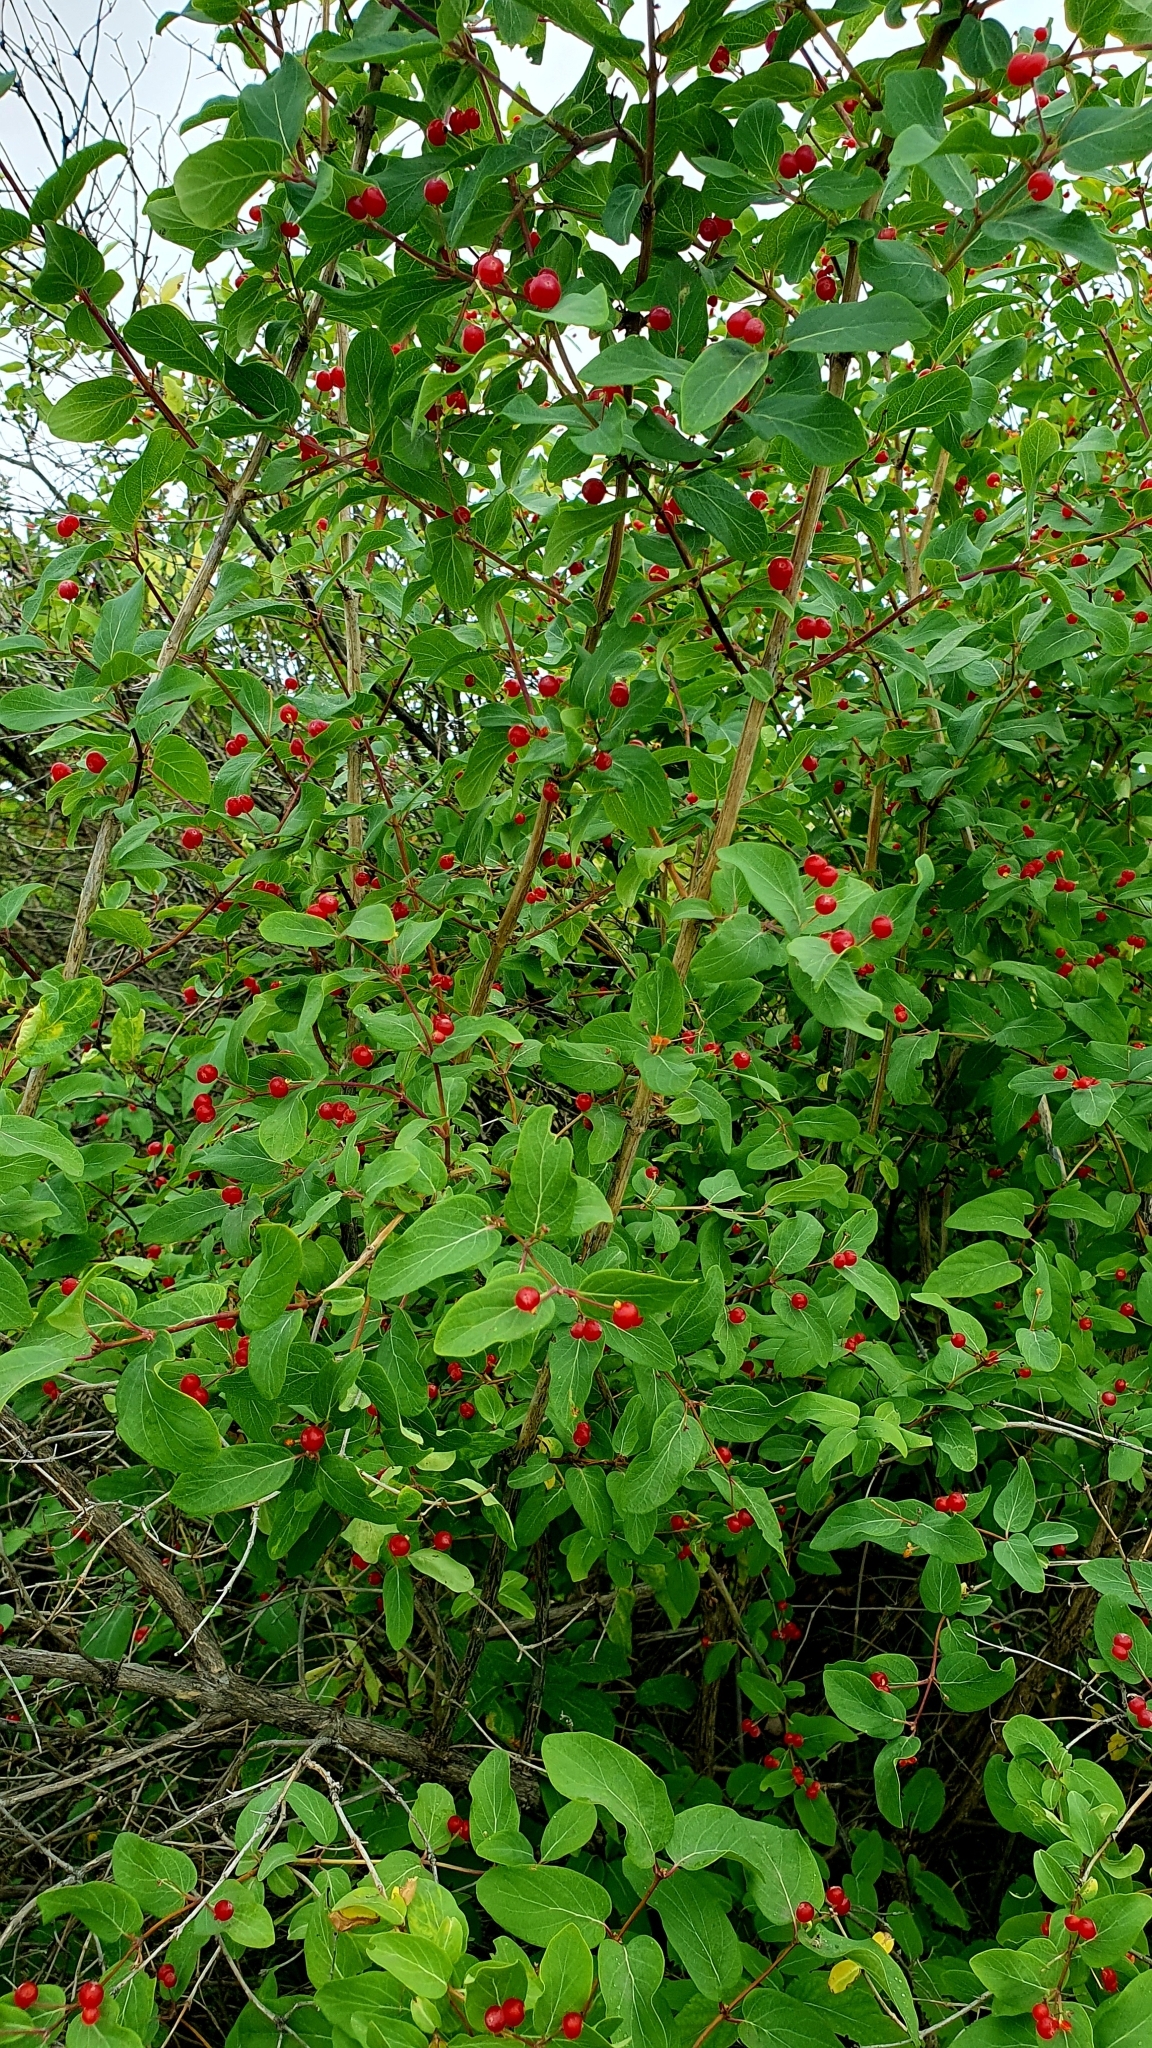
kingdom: Plantae
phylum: Tracheophyta
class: Magnoliopsida
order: Dipsacales
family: Caprifoliaceae
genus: Lonicera
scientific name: Lonicera tatarica
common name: Tatarian honeysuckle
